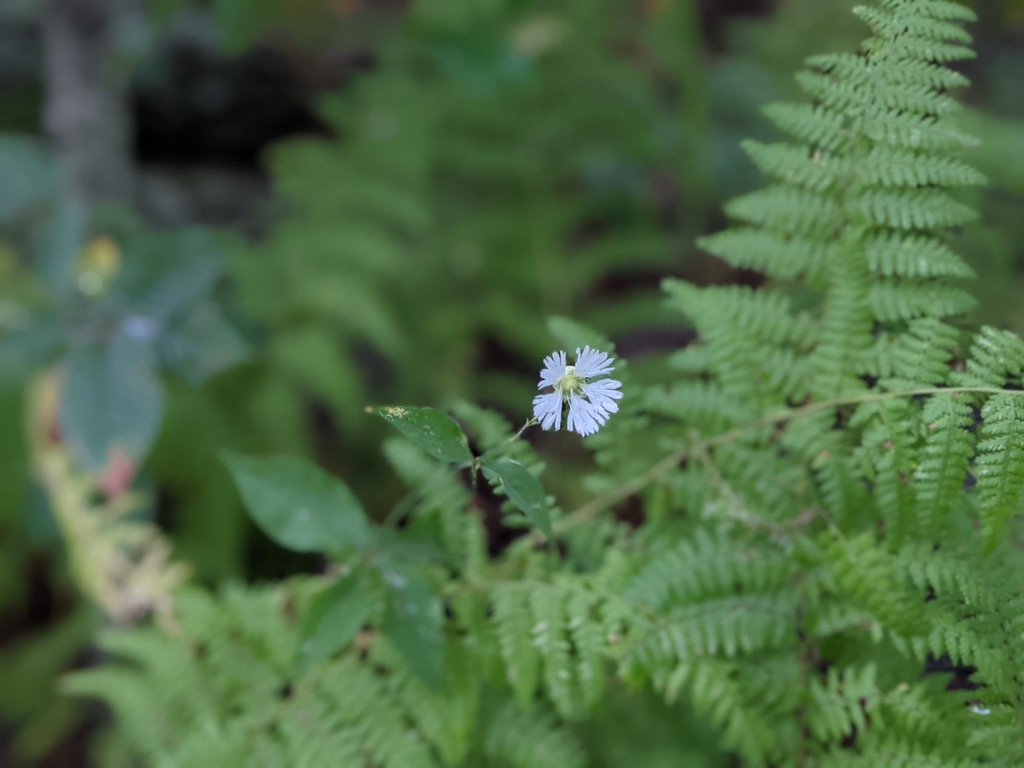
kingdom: Plantae
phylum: Tracheophyta
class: Magnoliopsida
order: Caryophyllales
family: Caryophyllaceae
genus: Silene
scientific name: Silene stellata
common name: Starry campion
